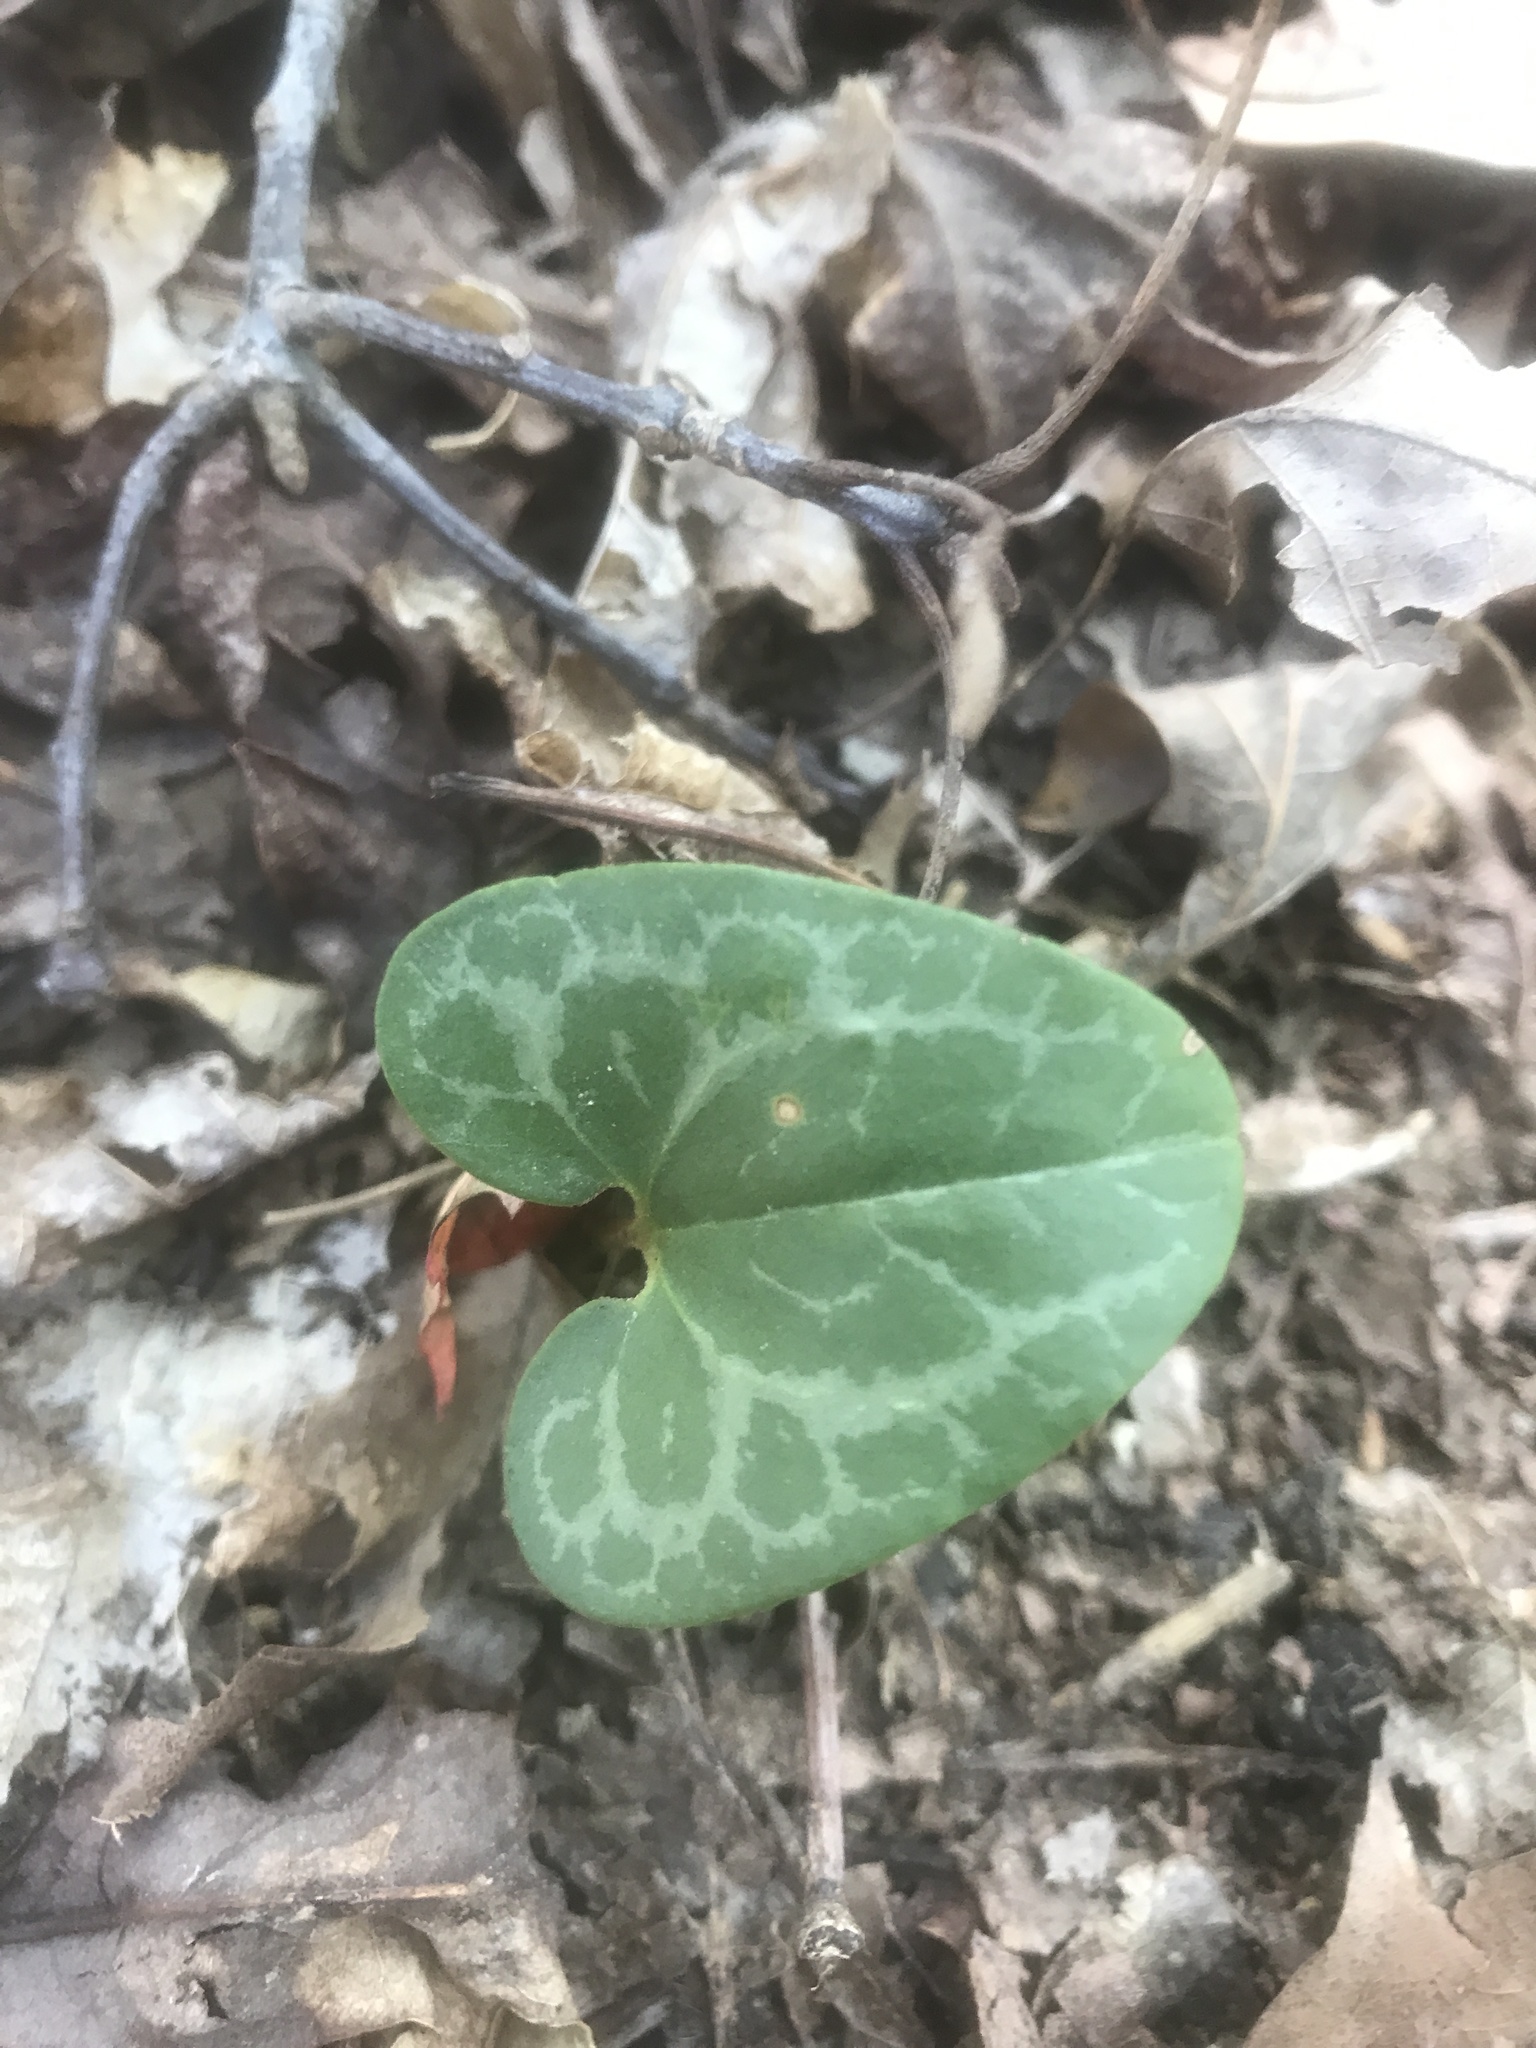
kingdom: Plantae
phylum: Tracheophyta
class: Magnoliopsida
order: Piperales
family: Aristolochiaceae
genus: Hexastylis
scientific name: Hexastylis lewisii
